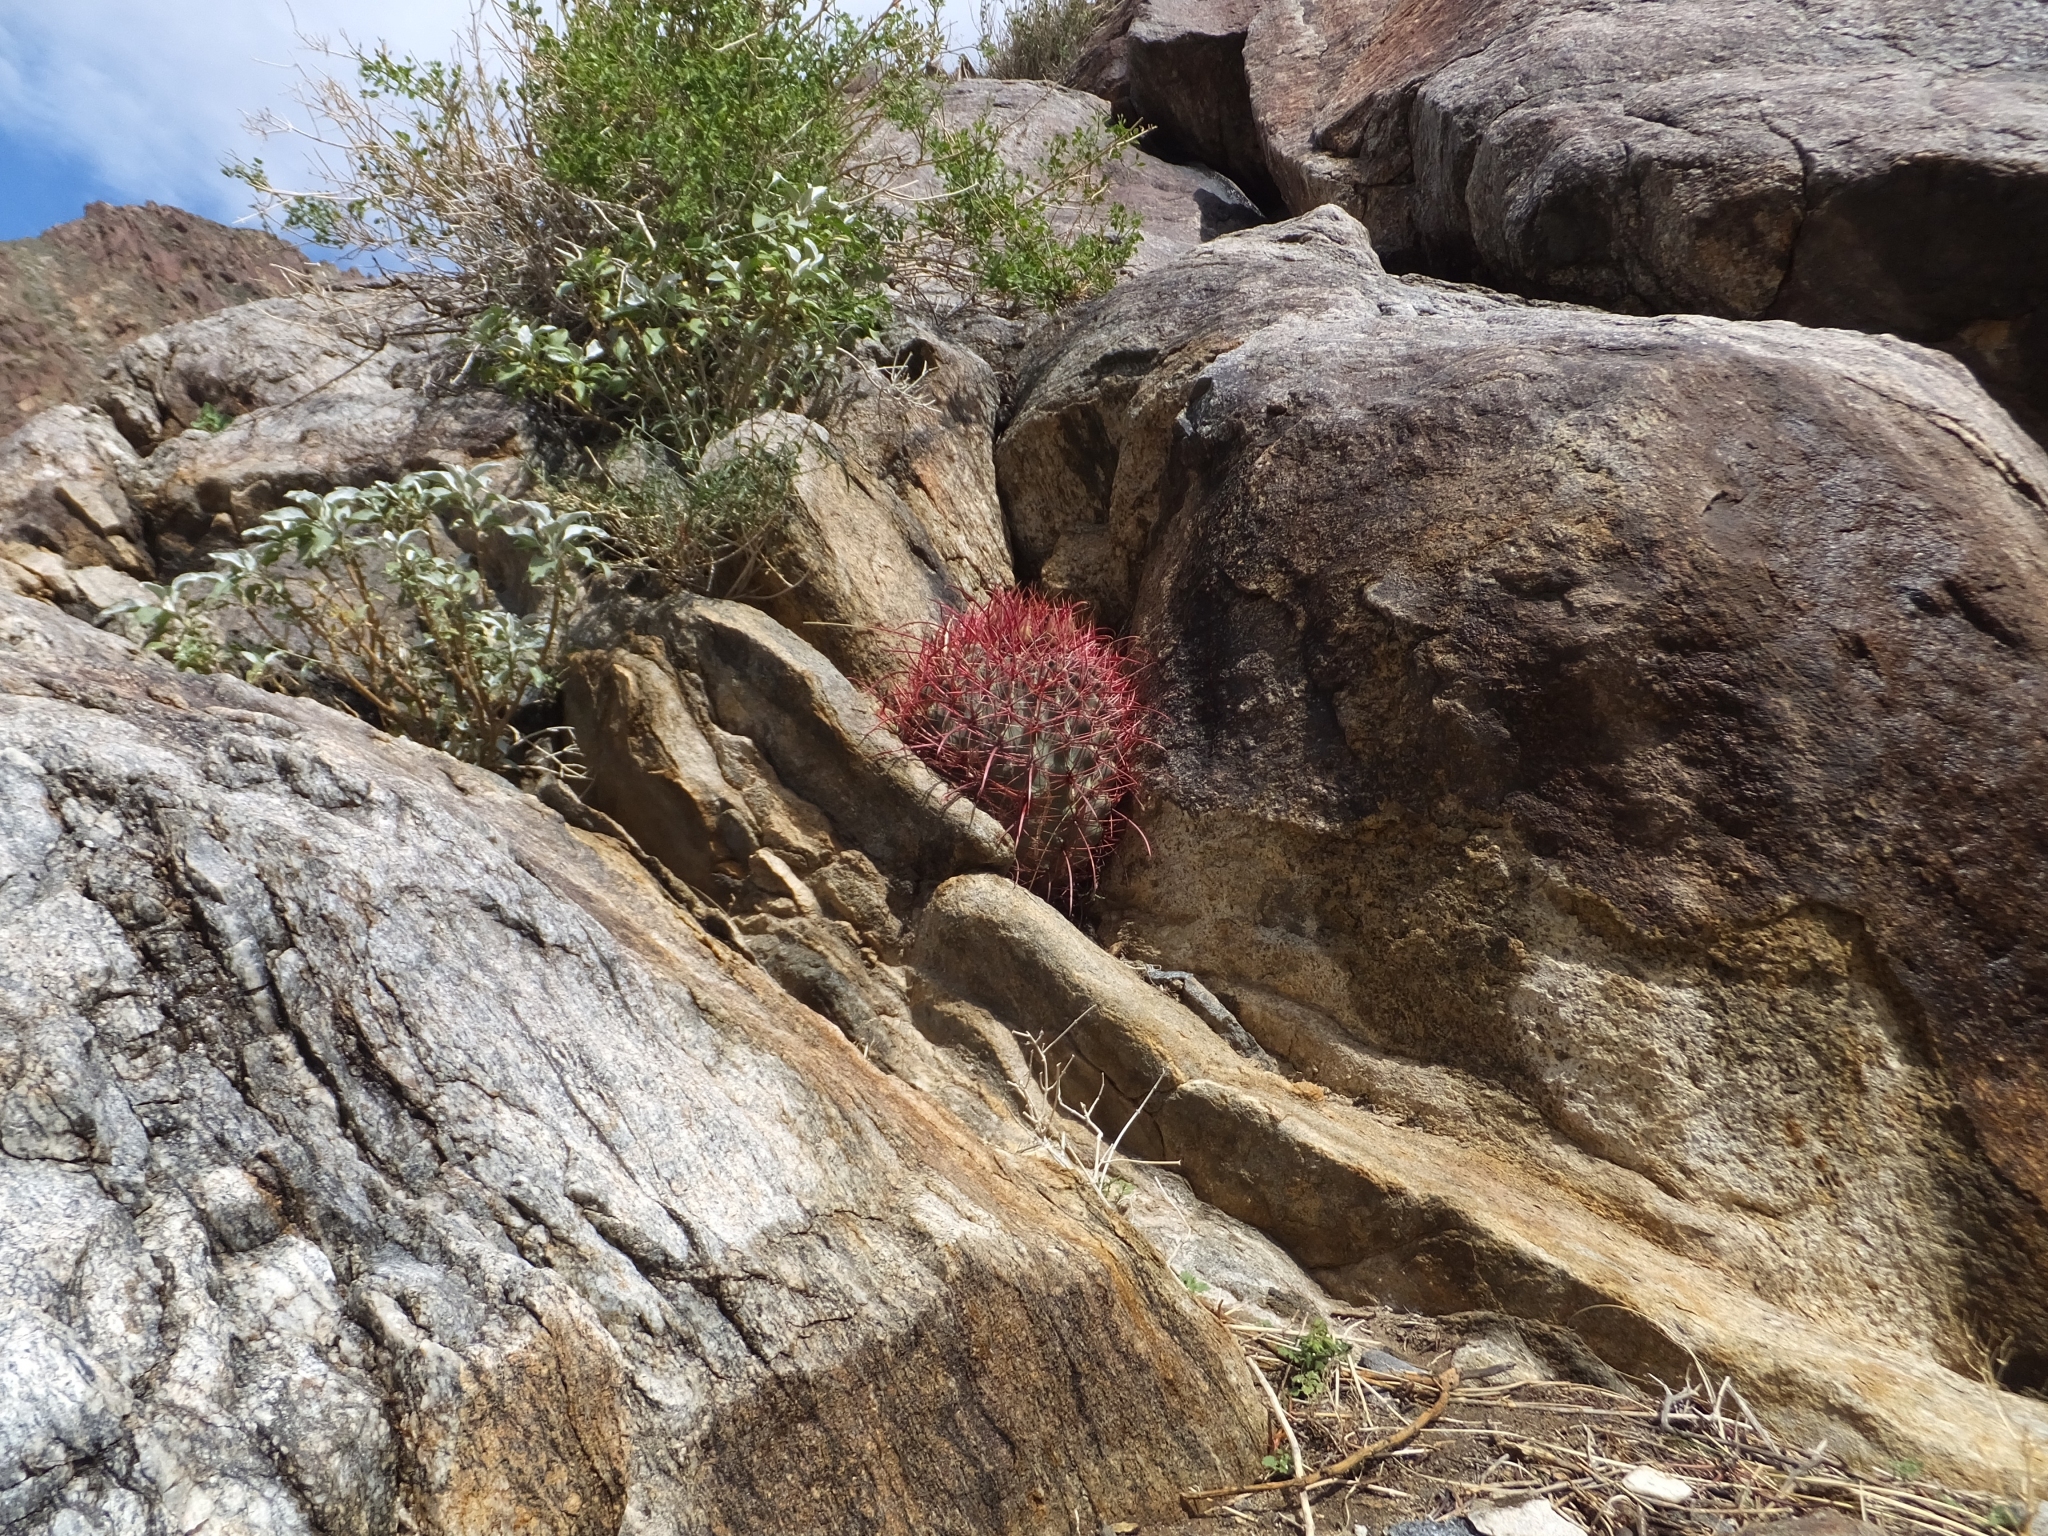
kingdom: Plantae
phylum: Tracheophyta
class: Magnoliopsida
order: Caryophyllales
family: Cactaceae
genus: Ferocactus
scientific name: Ferocactus cylindraceus
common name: California barrel cactus
